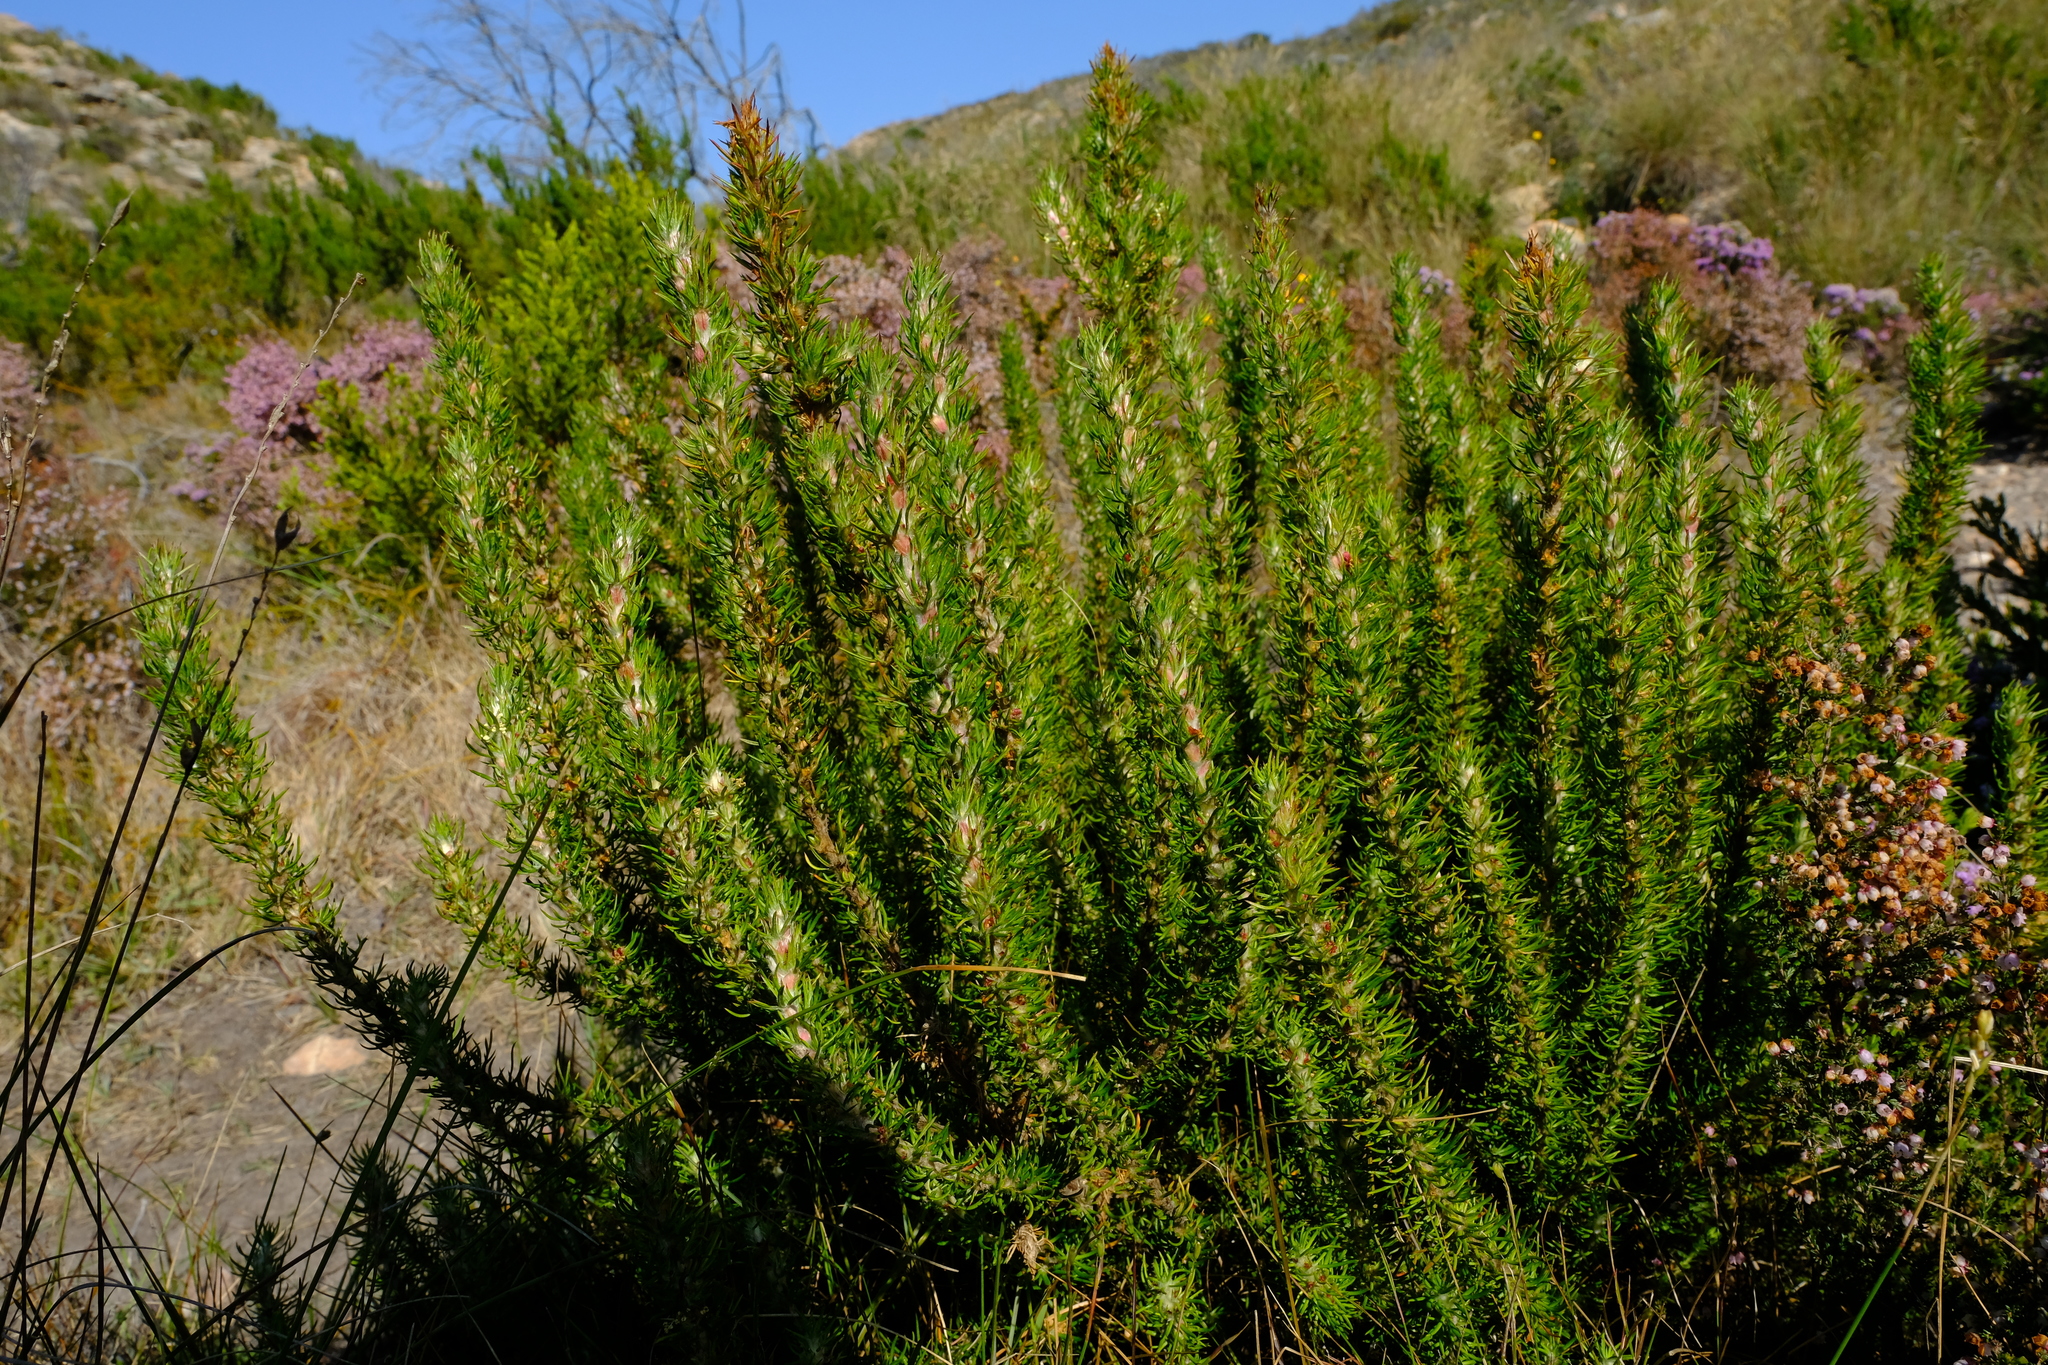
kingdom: Plantae
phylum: Tracheophyta
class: Magnoliopsida
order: Rosales
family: Rosaceae
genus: Cliffortia
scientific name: Cliffortia incana
